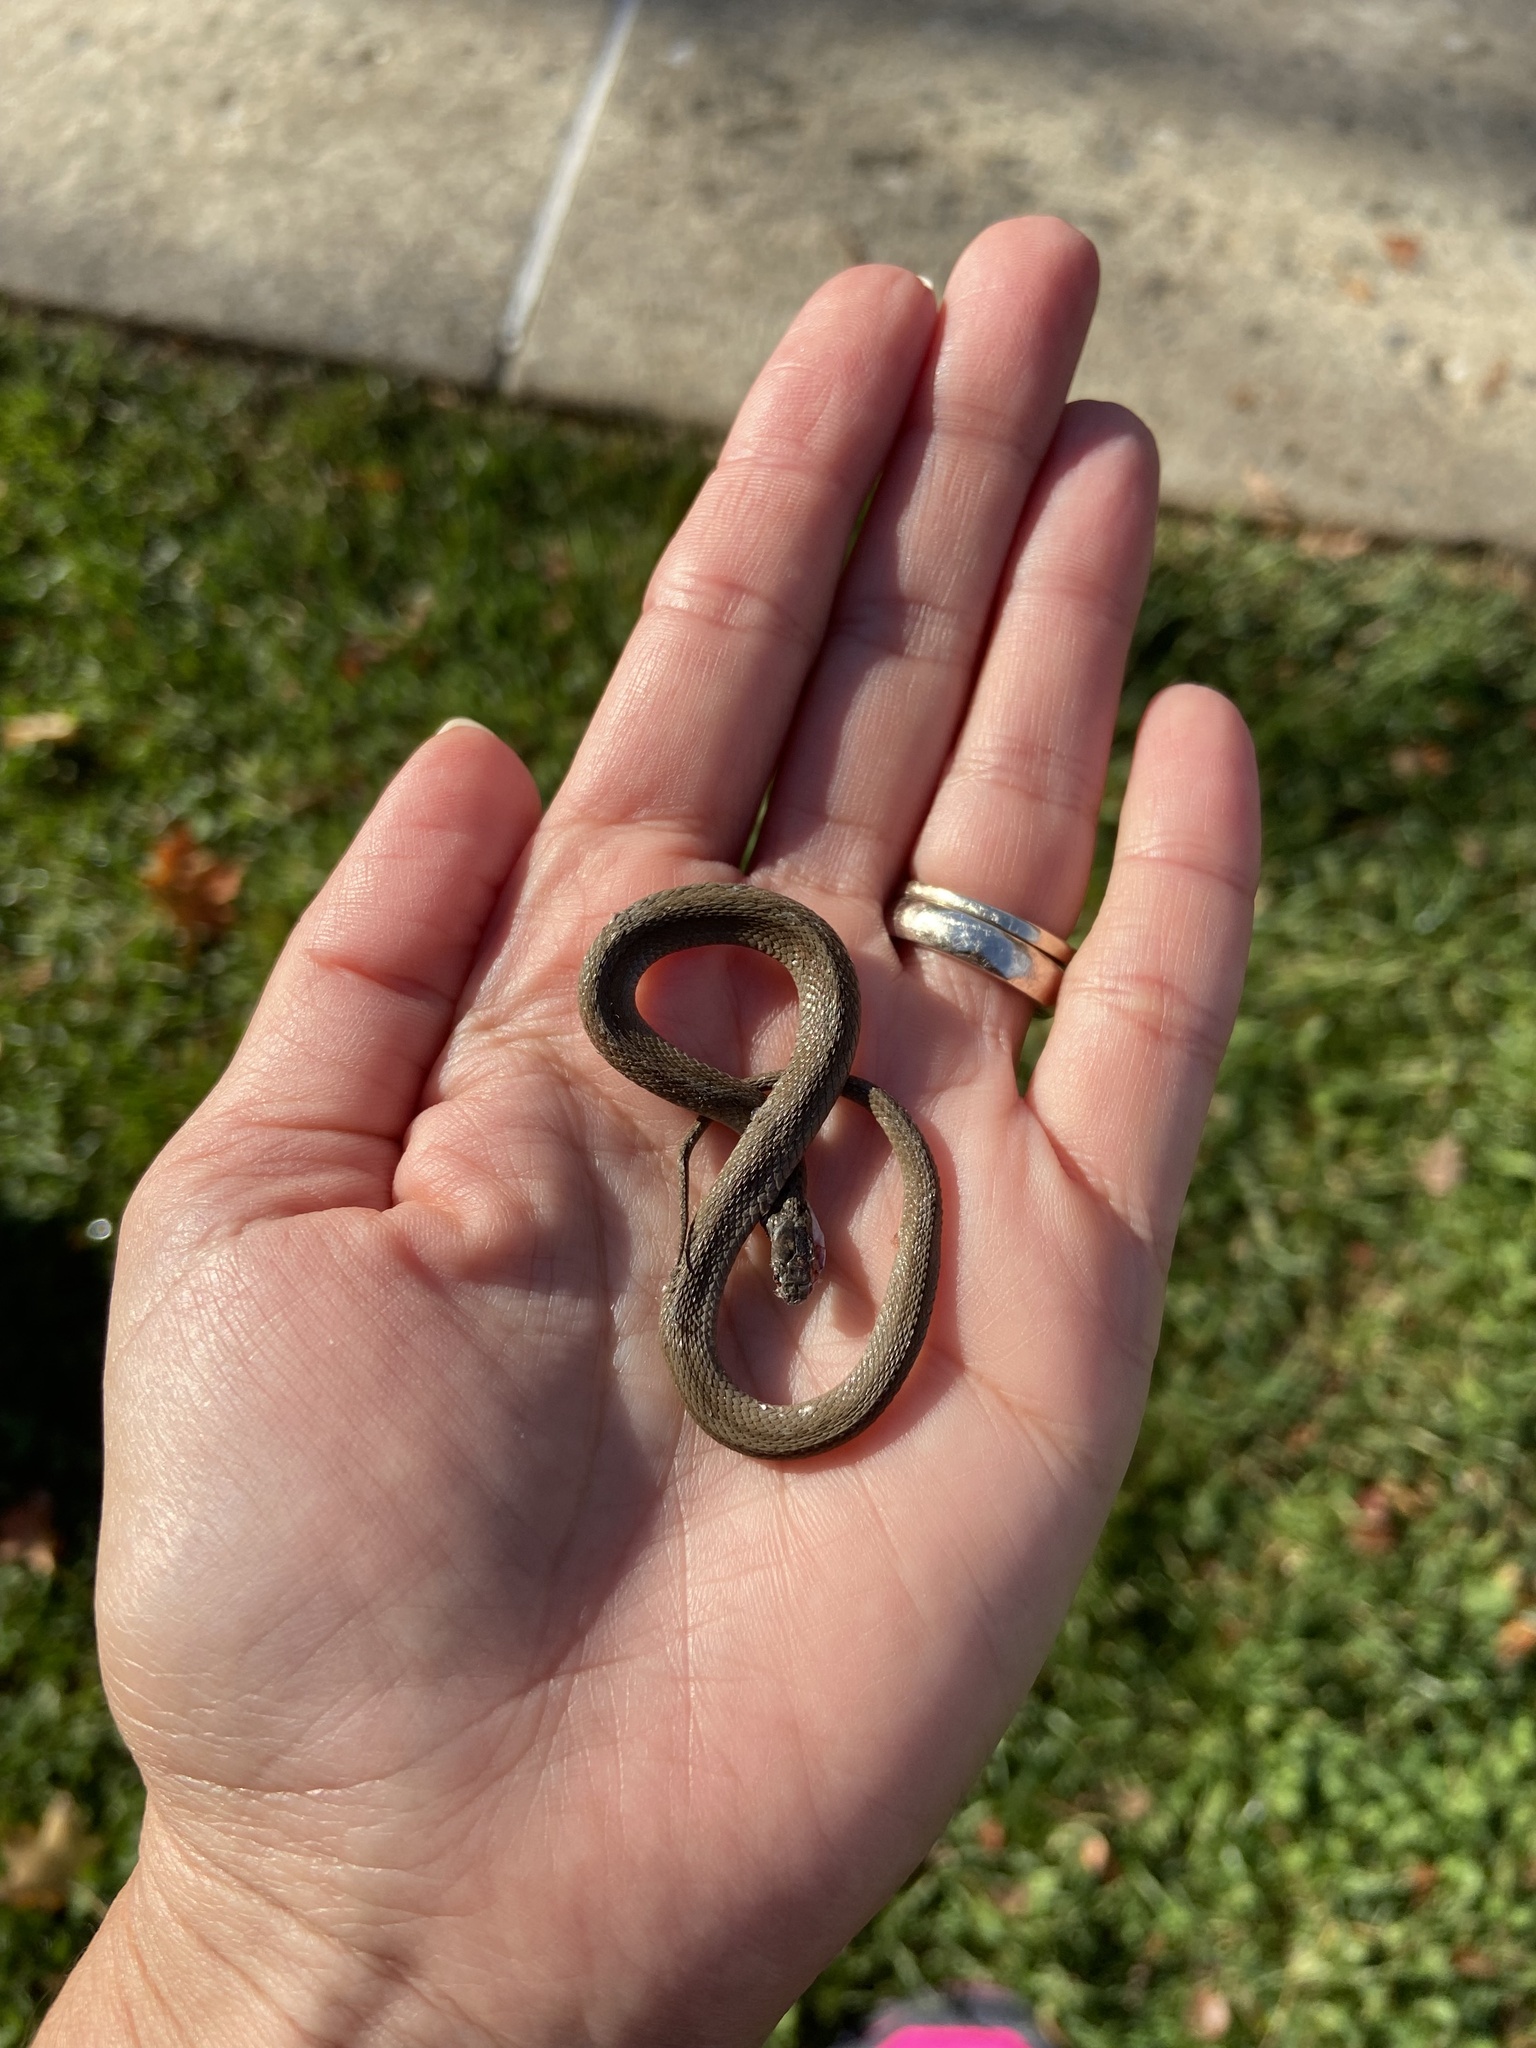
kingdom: Animalia
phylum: Chordata
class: Squamata
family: Colubridae
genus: Storeria
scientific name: Storeria dekayi
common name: (dekay’s) brown snake
